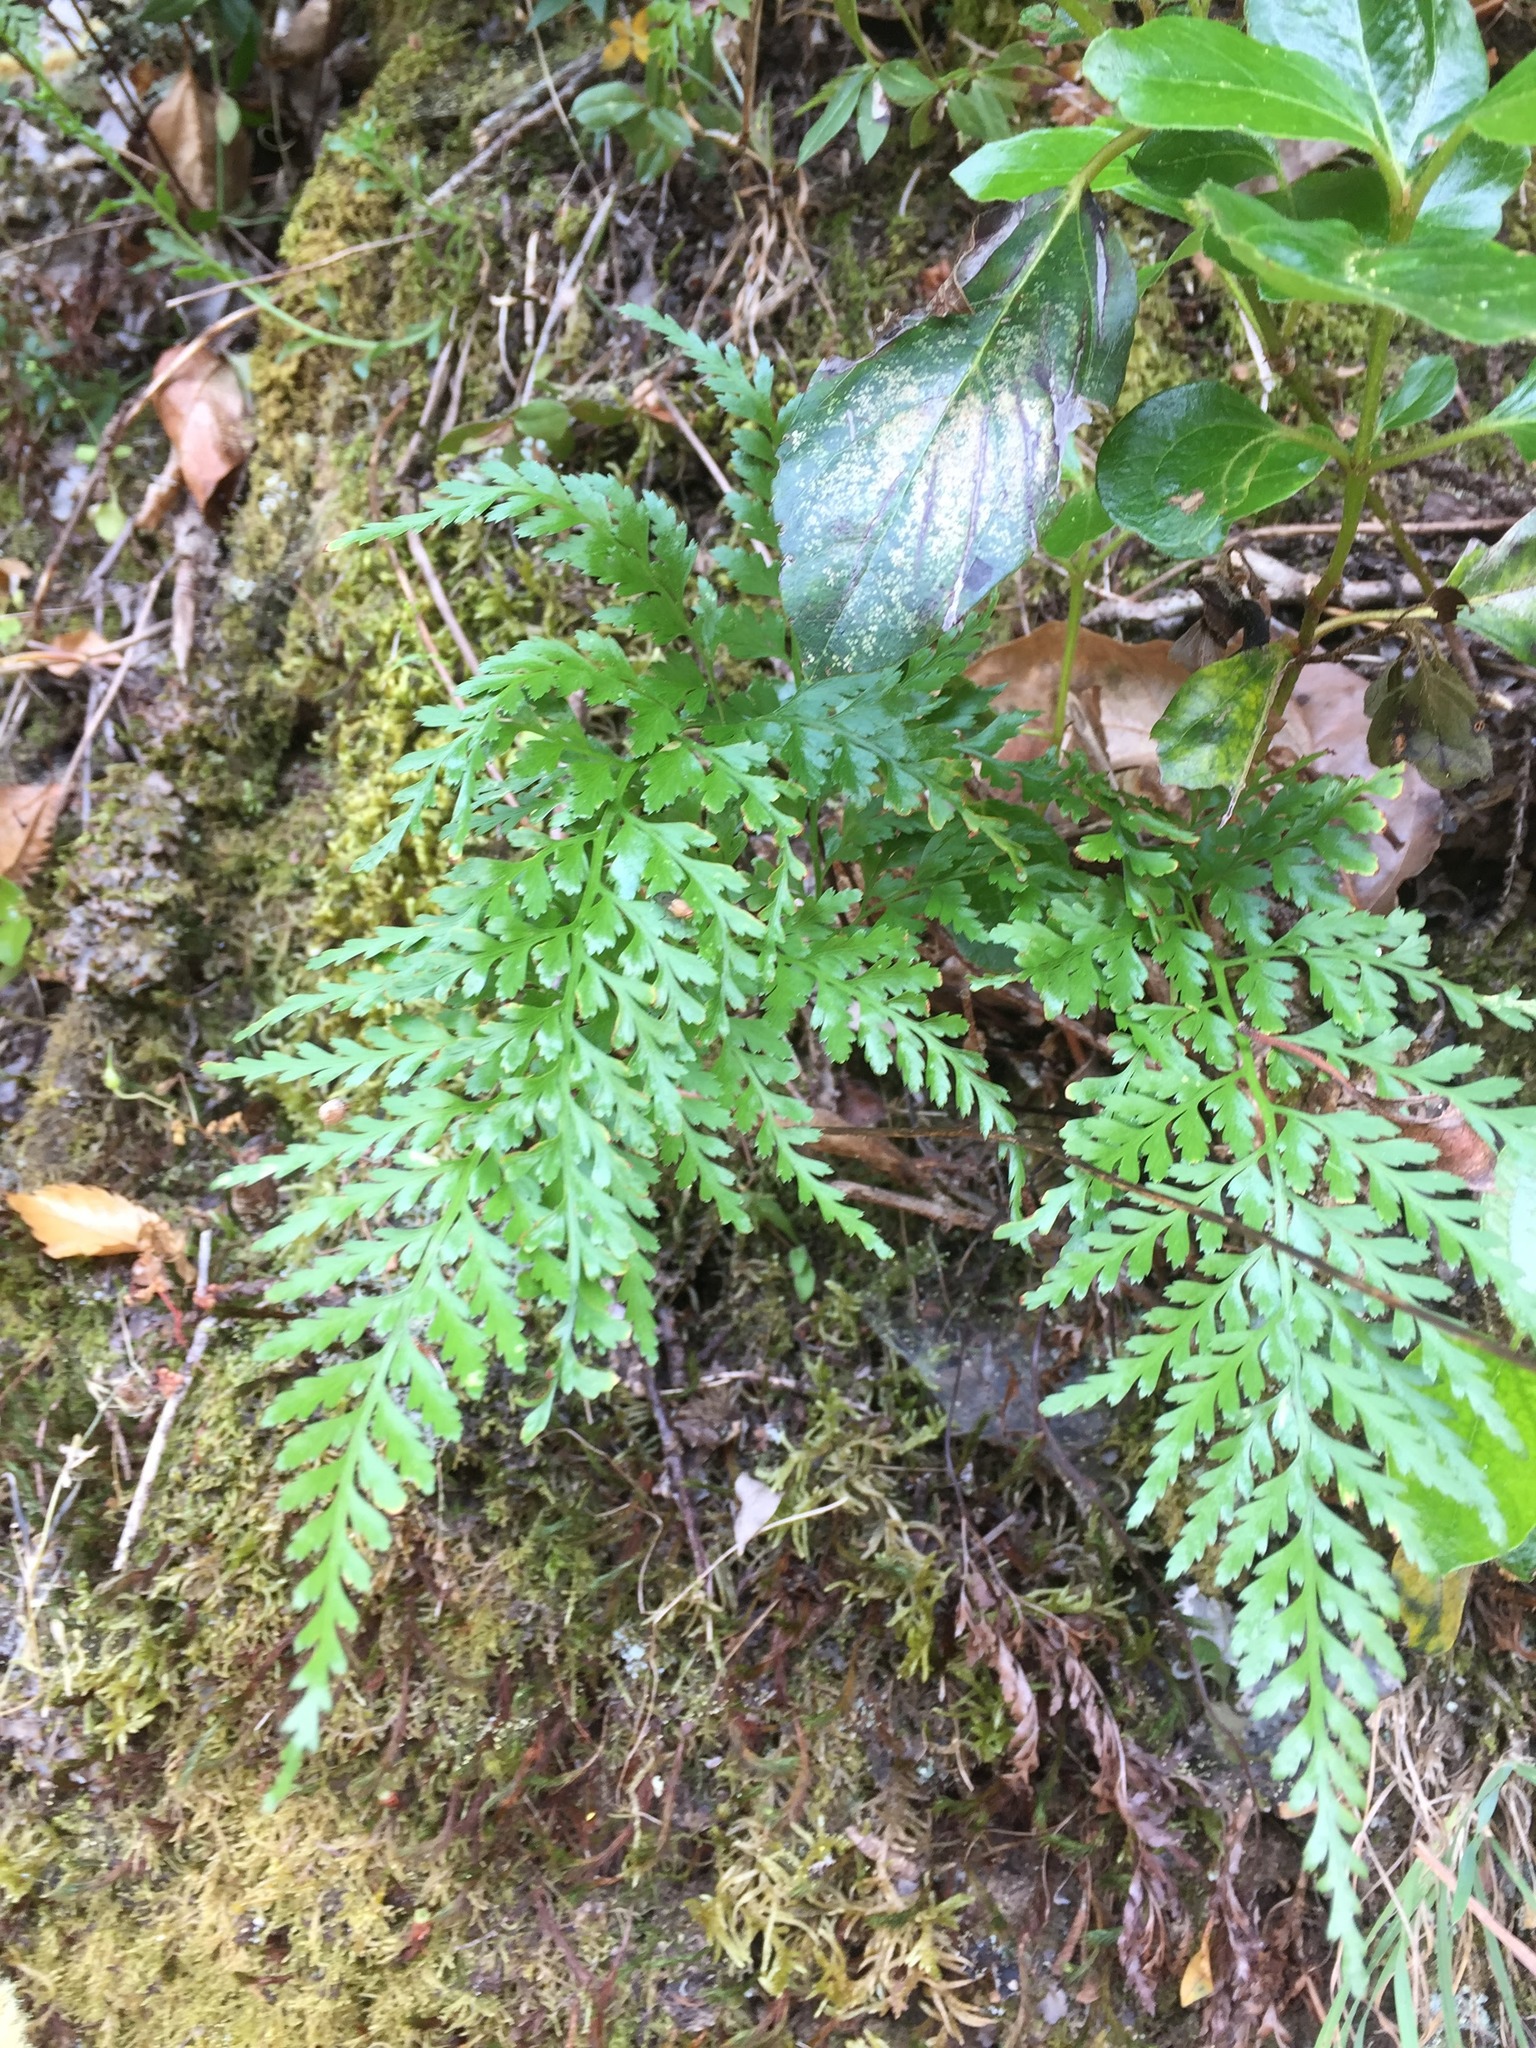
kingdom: Plantae
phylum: Tracheophyta
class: Polypodiopsida
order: Polypodiales
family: Aspleniaceae
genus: Asplenium
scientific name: Asplenium onopteris
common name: Irish spleenwort
